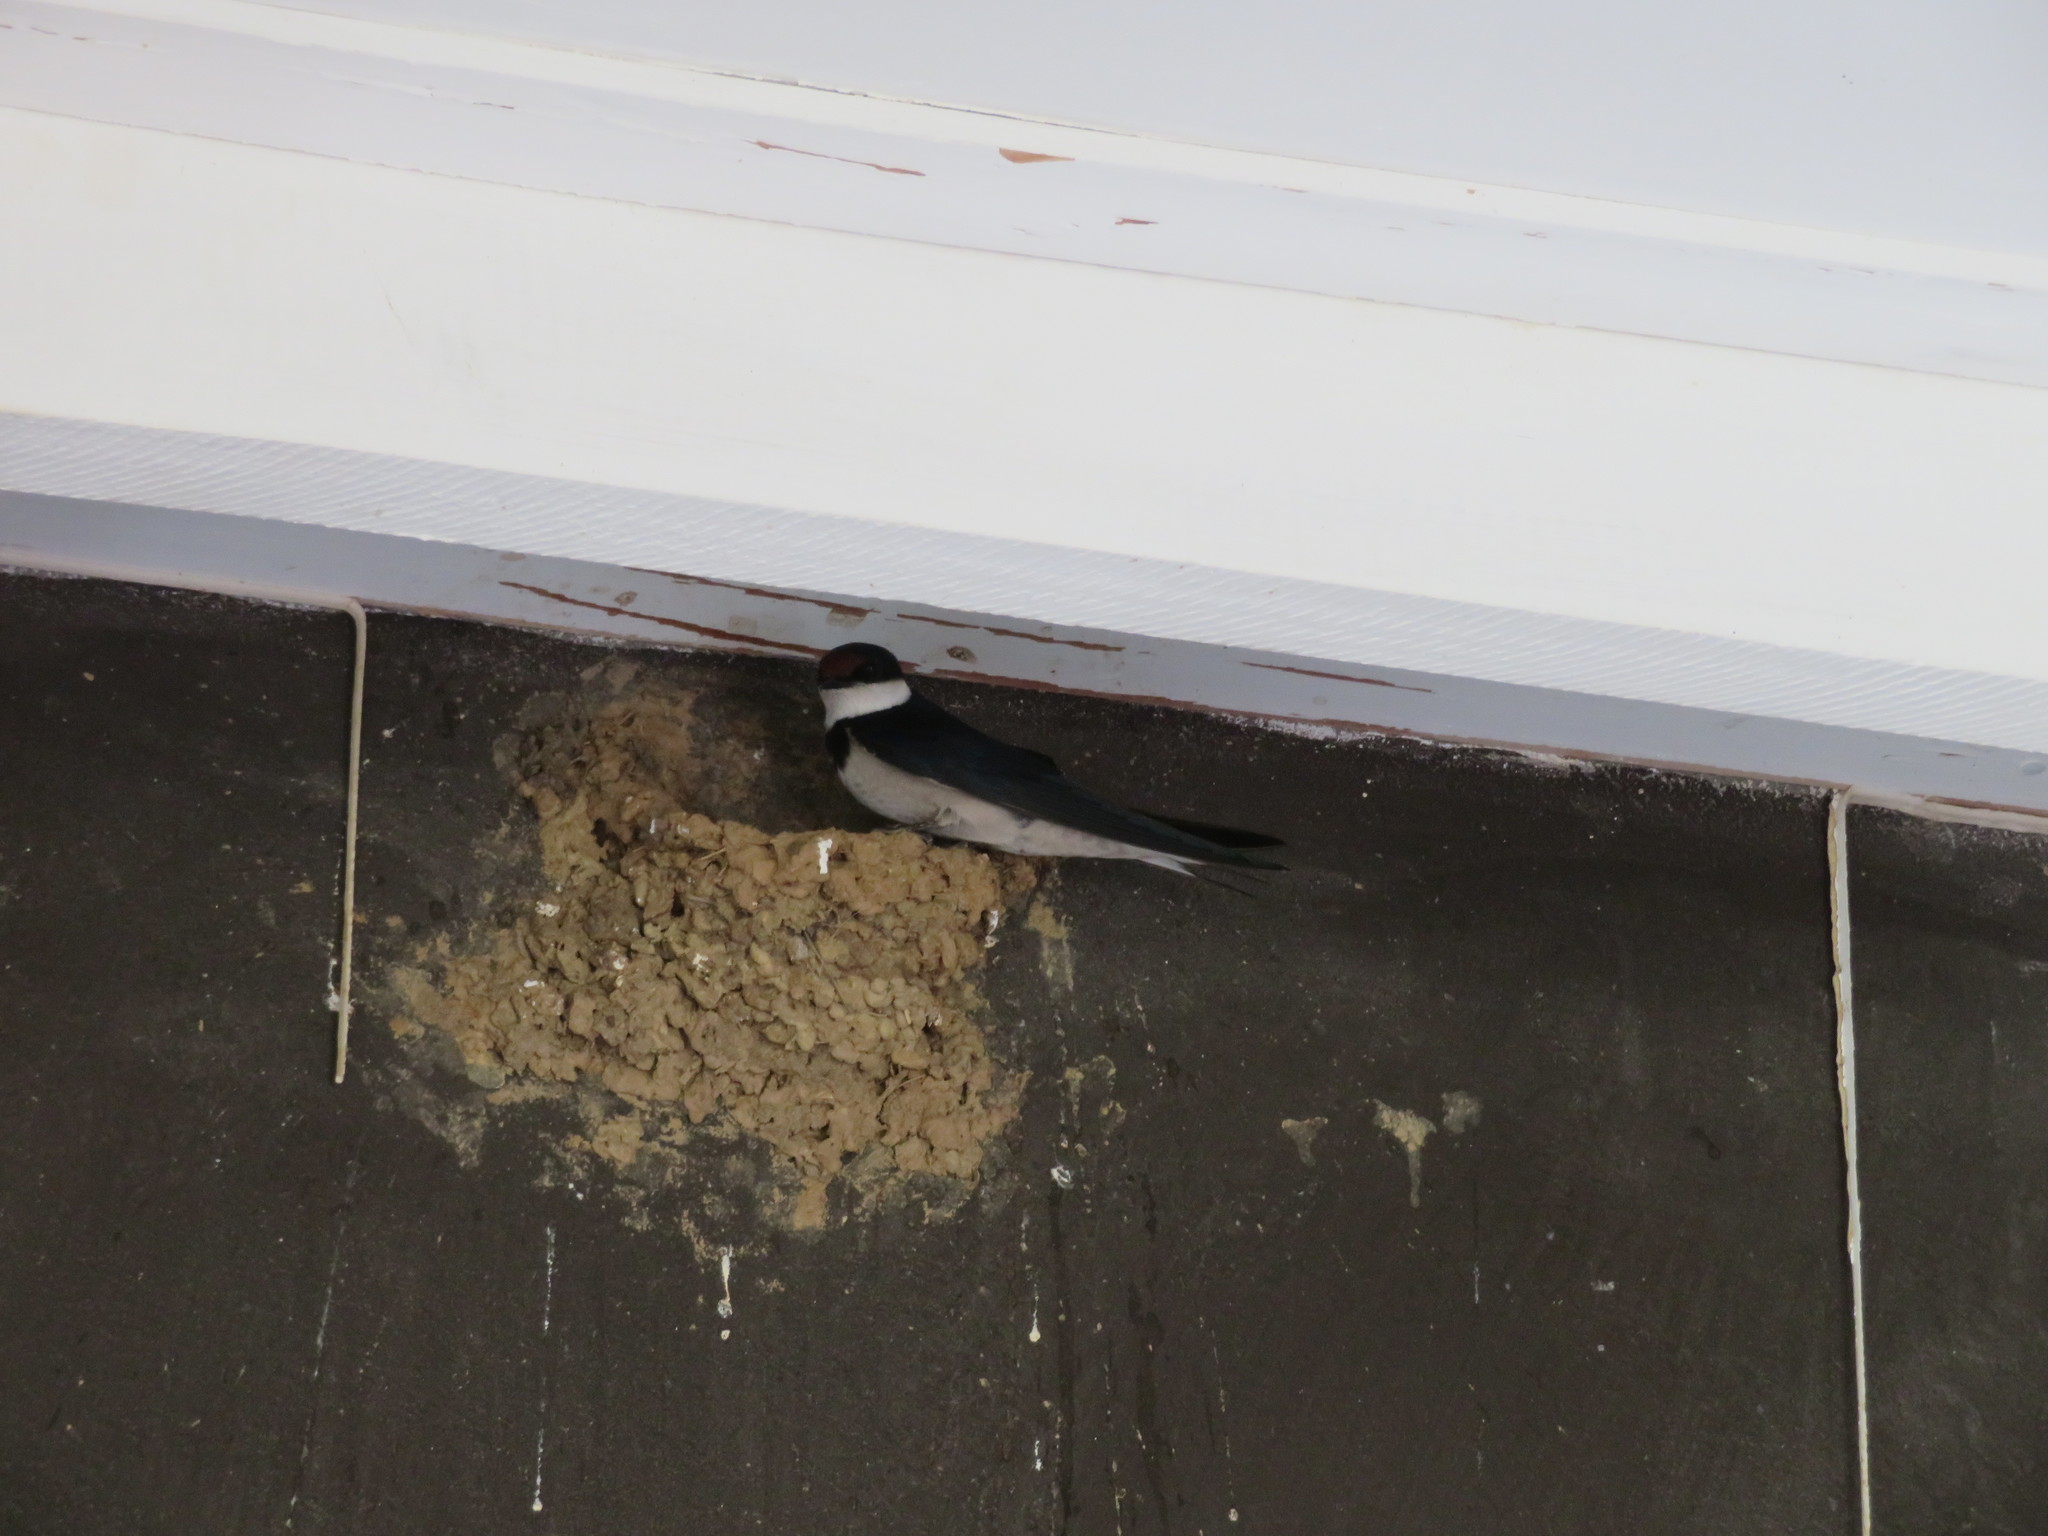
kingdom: Animalia
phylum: Chordata
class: Aves
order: Passeriformes
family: Hirundinidae
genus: Hirundo
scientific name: Hirundo albigularis
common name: White-throated swallow
